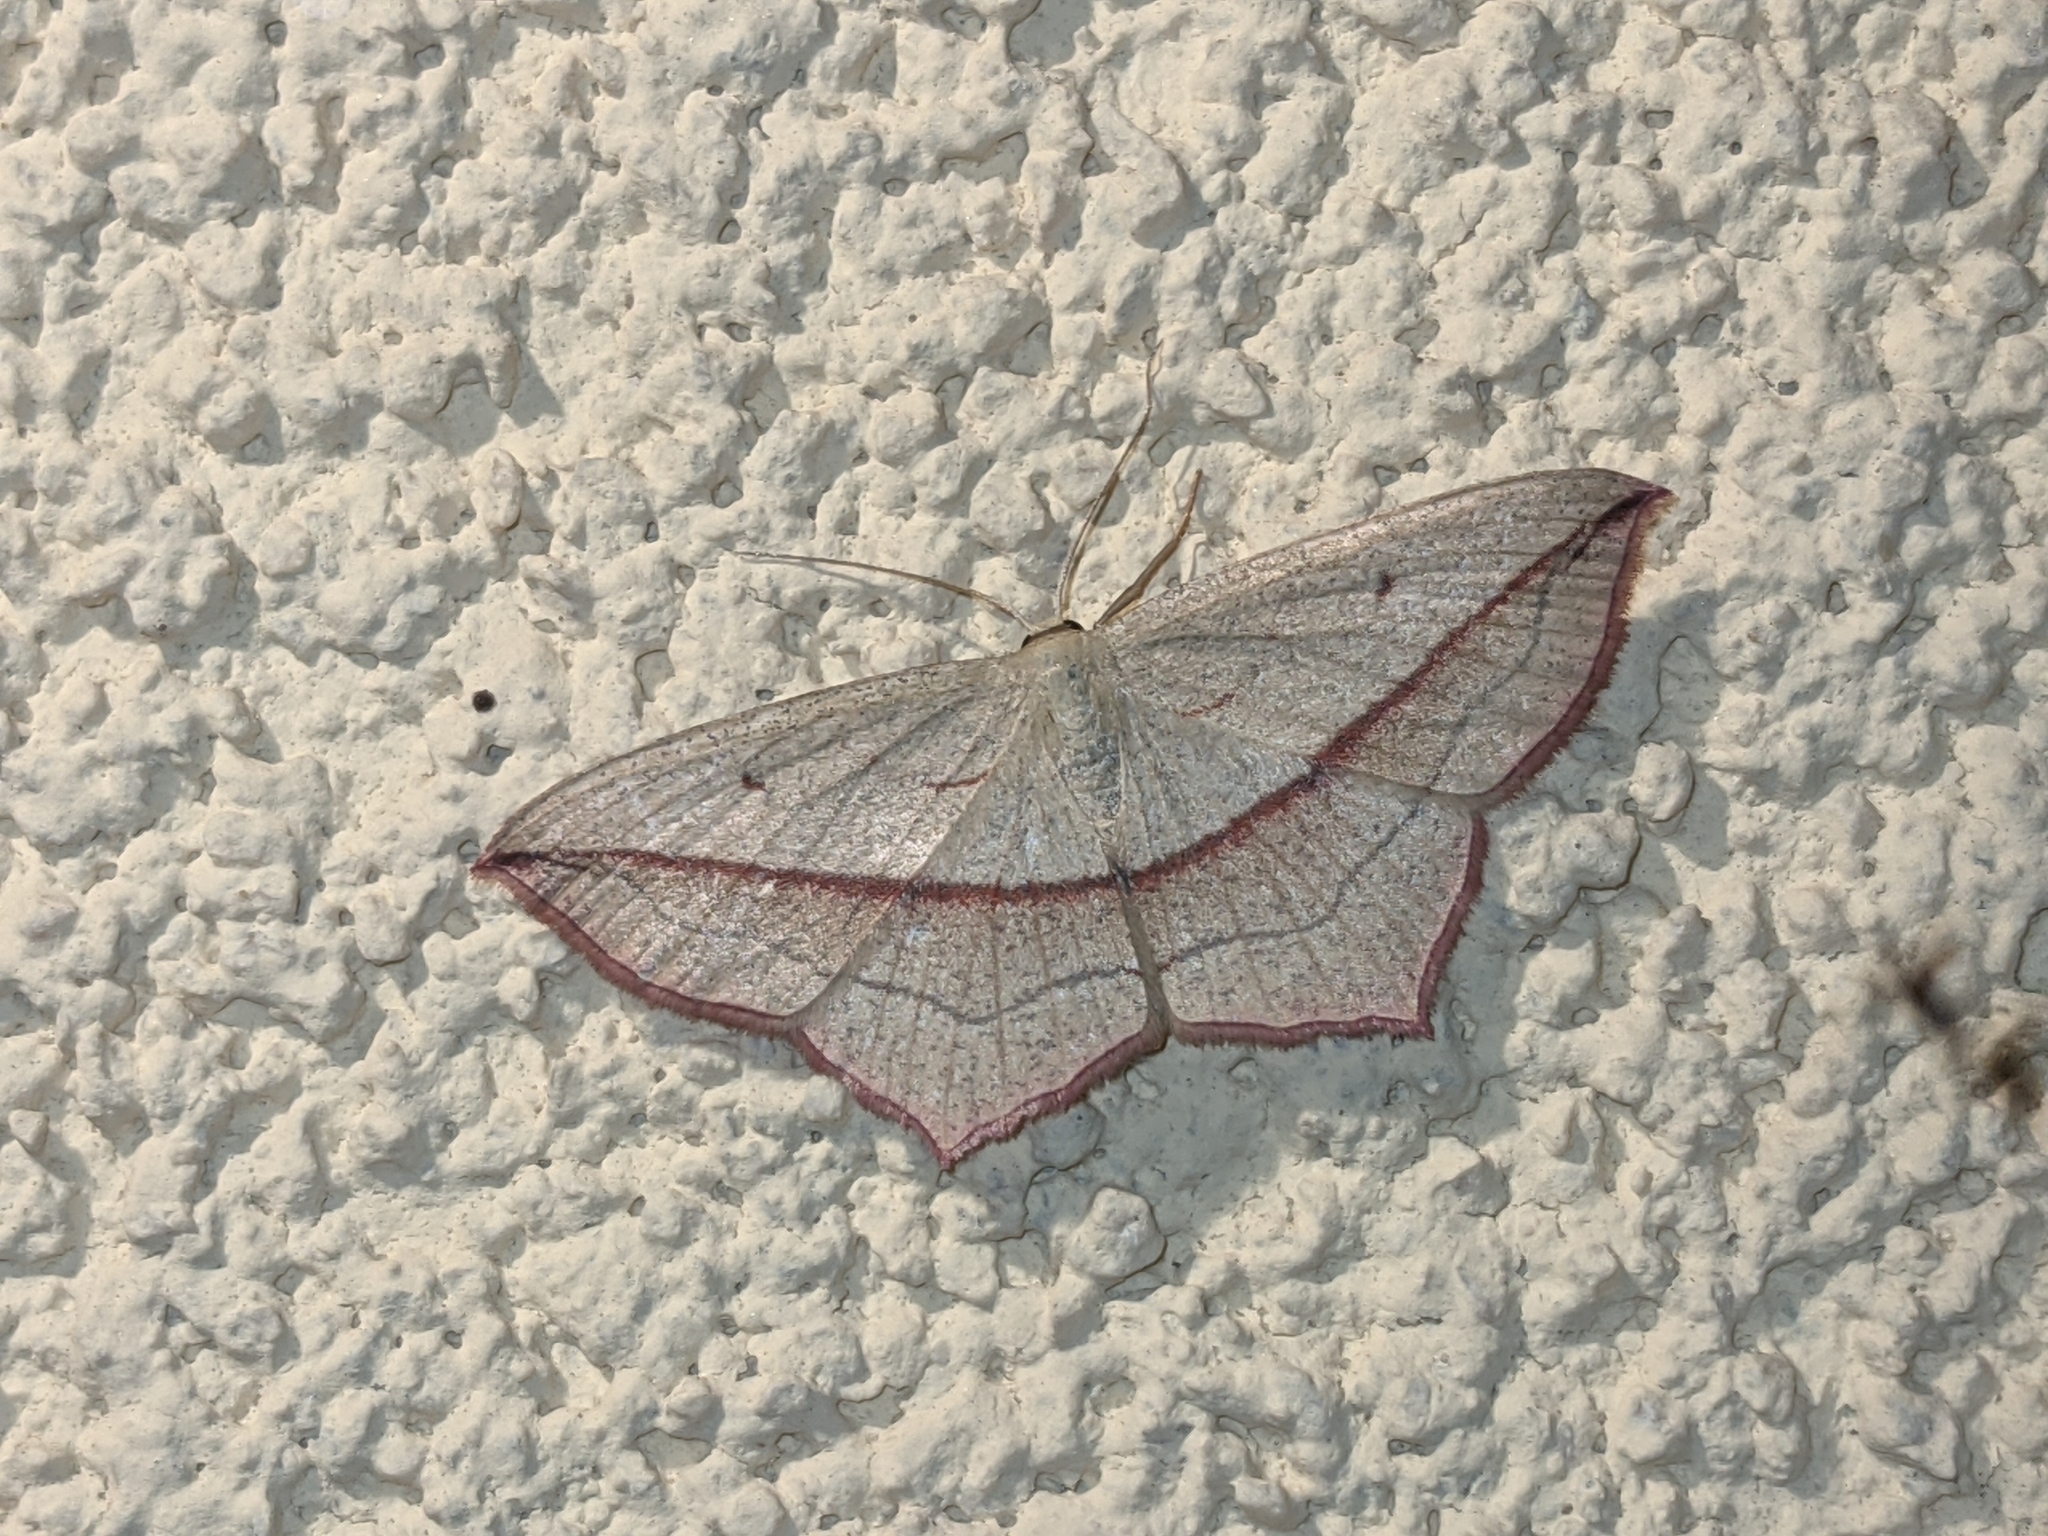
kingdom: Animalia
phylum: Arthropoda
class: Insecta
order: Lepidoptera
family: Geometridae
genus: Timandra
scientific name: Timandra comae
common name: Blood-vein
